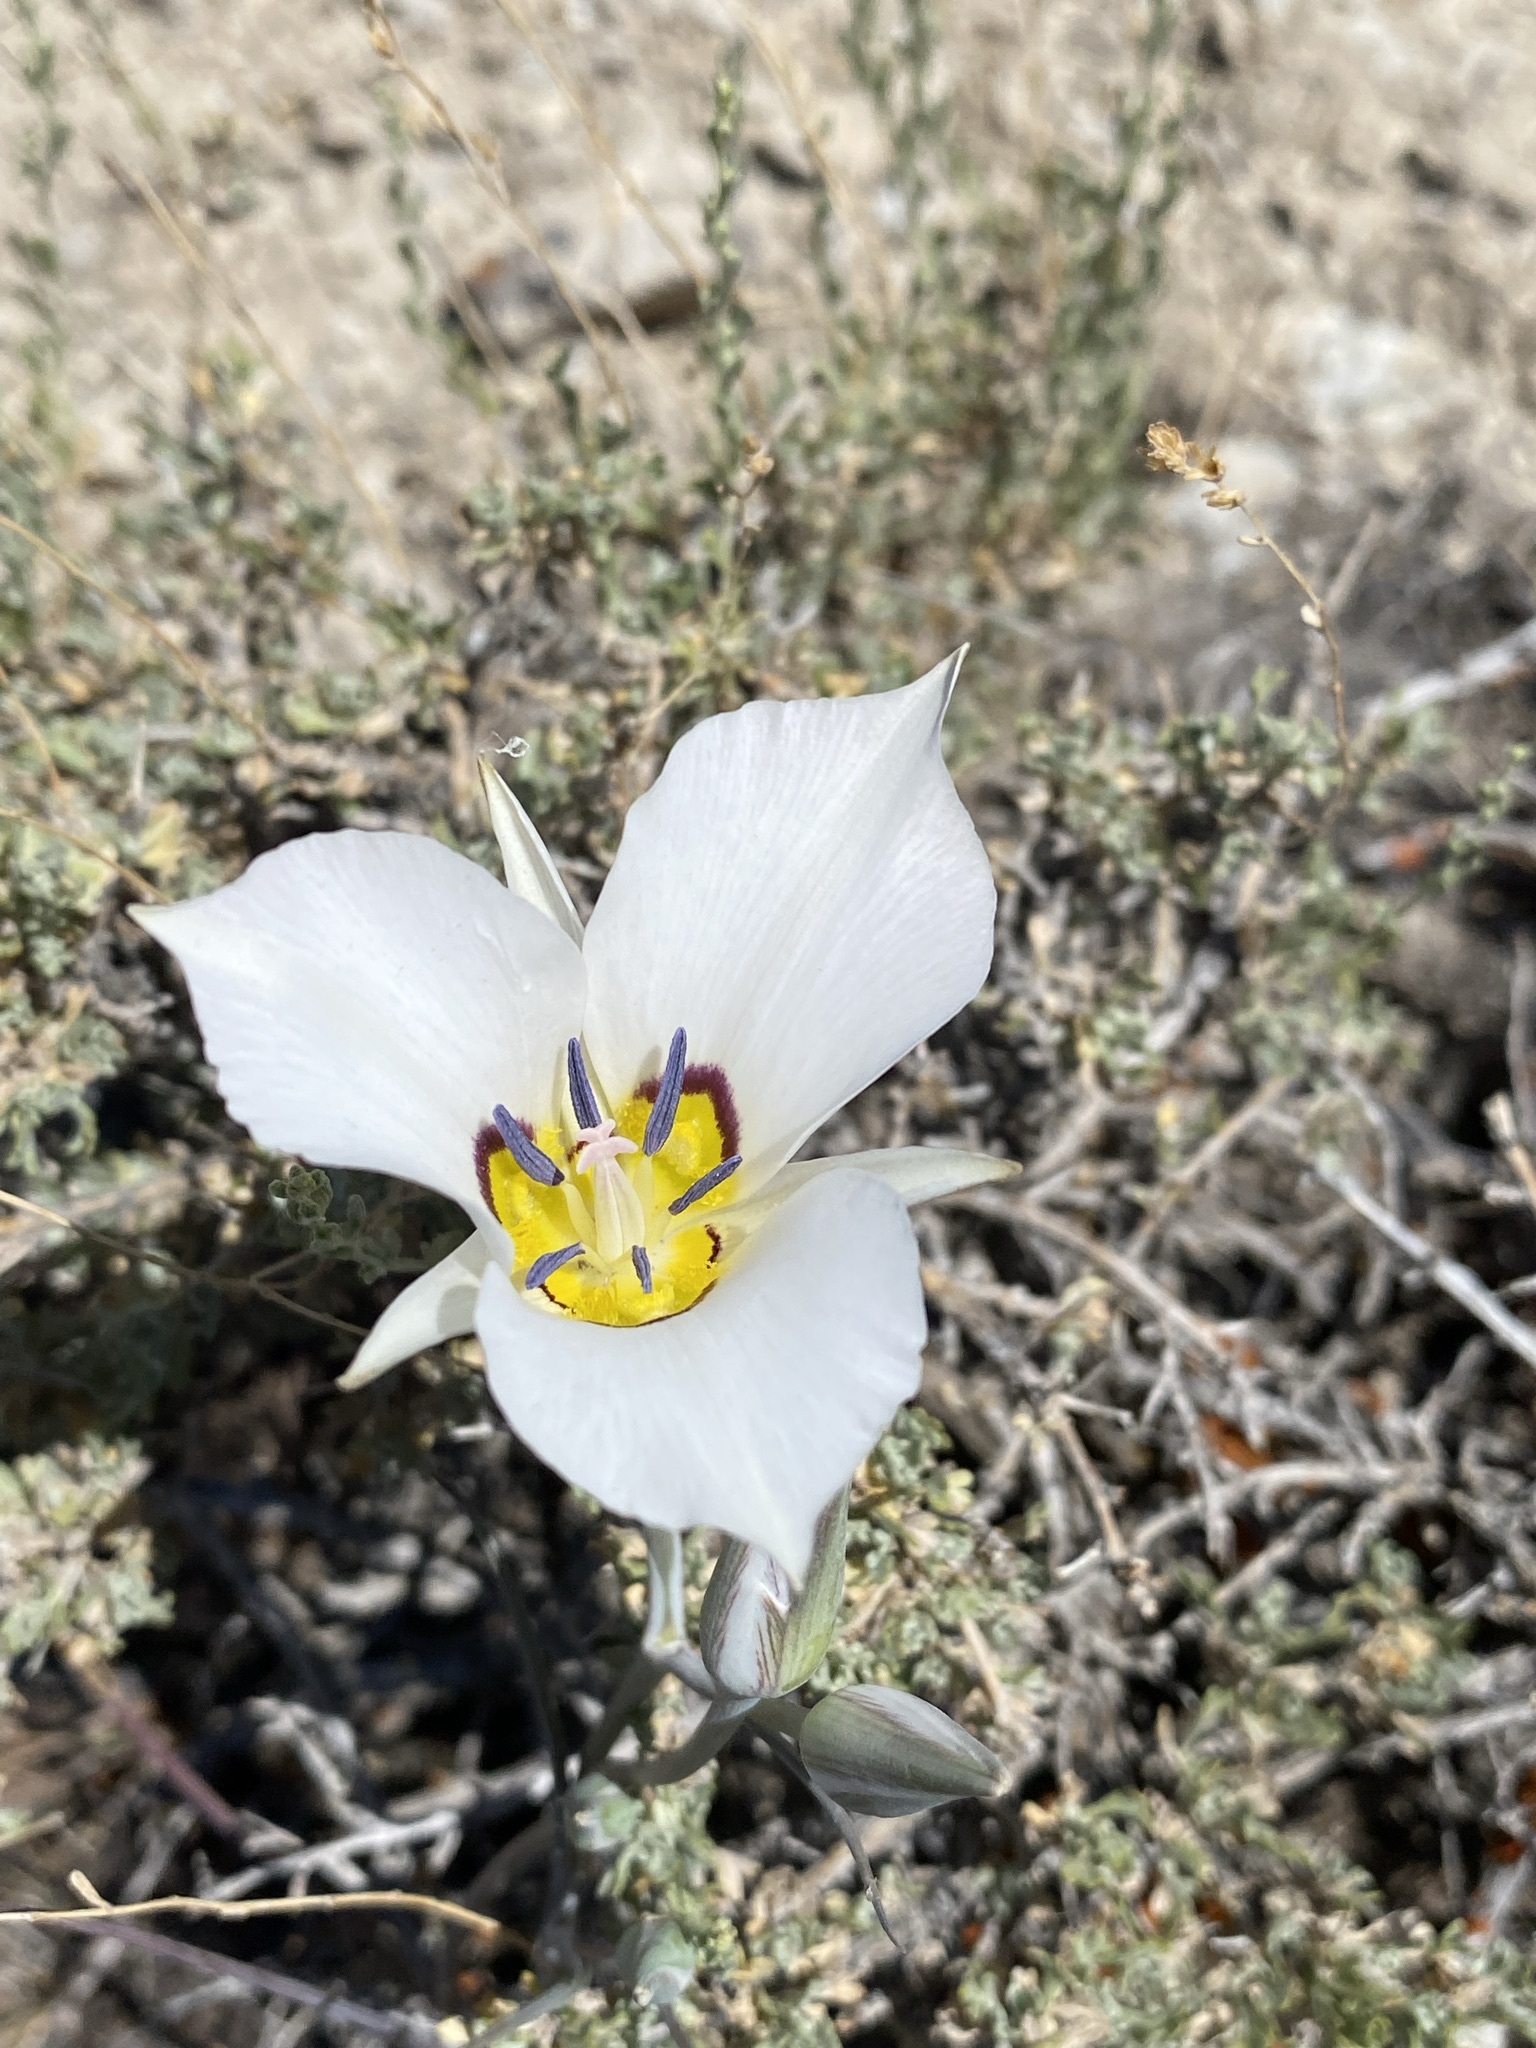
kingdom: Plantae
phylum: Tracheophyta
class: Liliopsida
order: Liliales
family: Liliaceae
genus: Calochortus
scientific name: Calochortus bruneaunis
